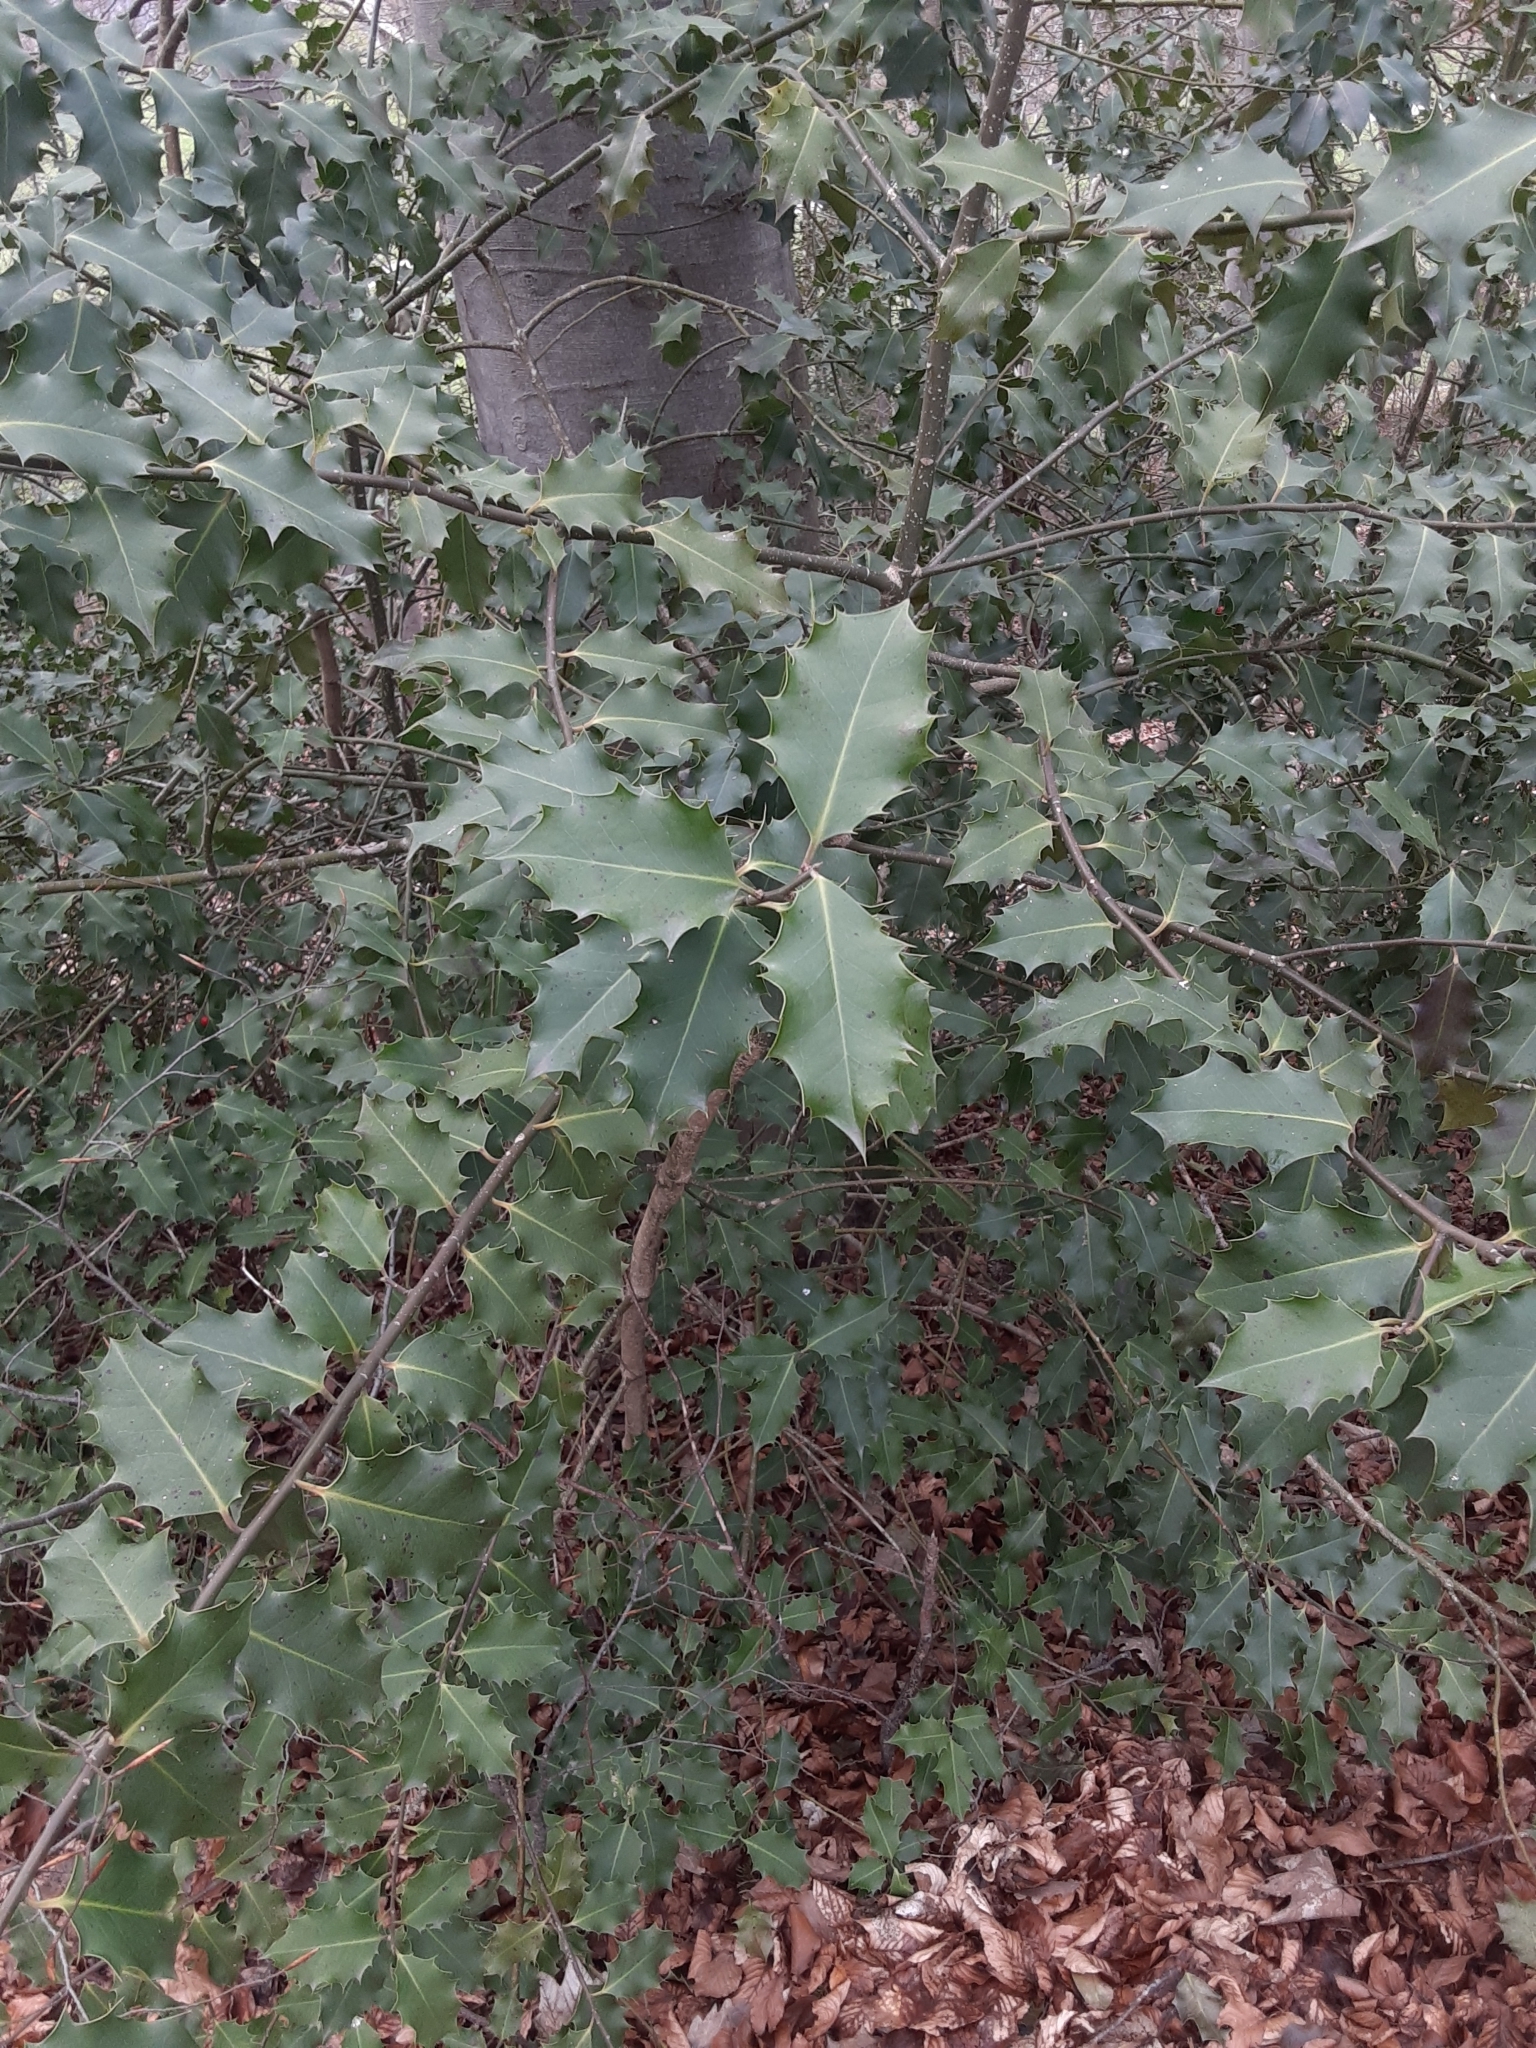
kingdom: Plantae
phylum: Tracheophyta
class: Magnoliopsida
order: Aquifoliales
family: Aquifoliaceae
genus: Ilex
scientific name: Ilex aquifolium
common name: English holly
